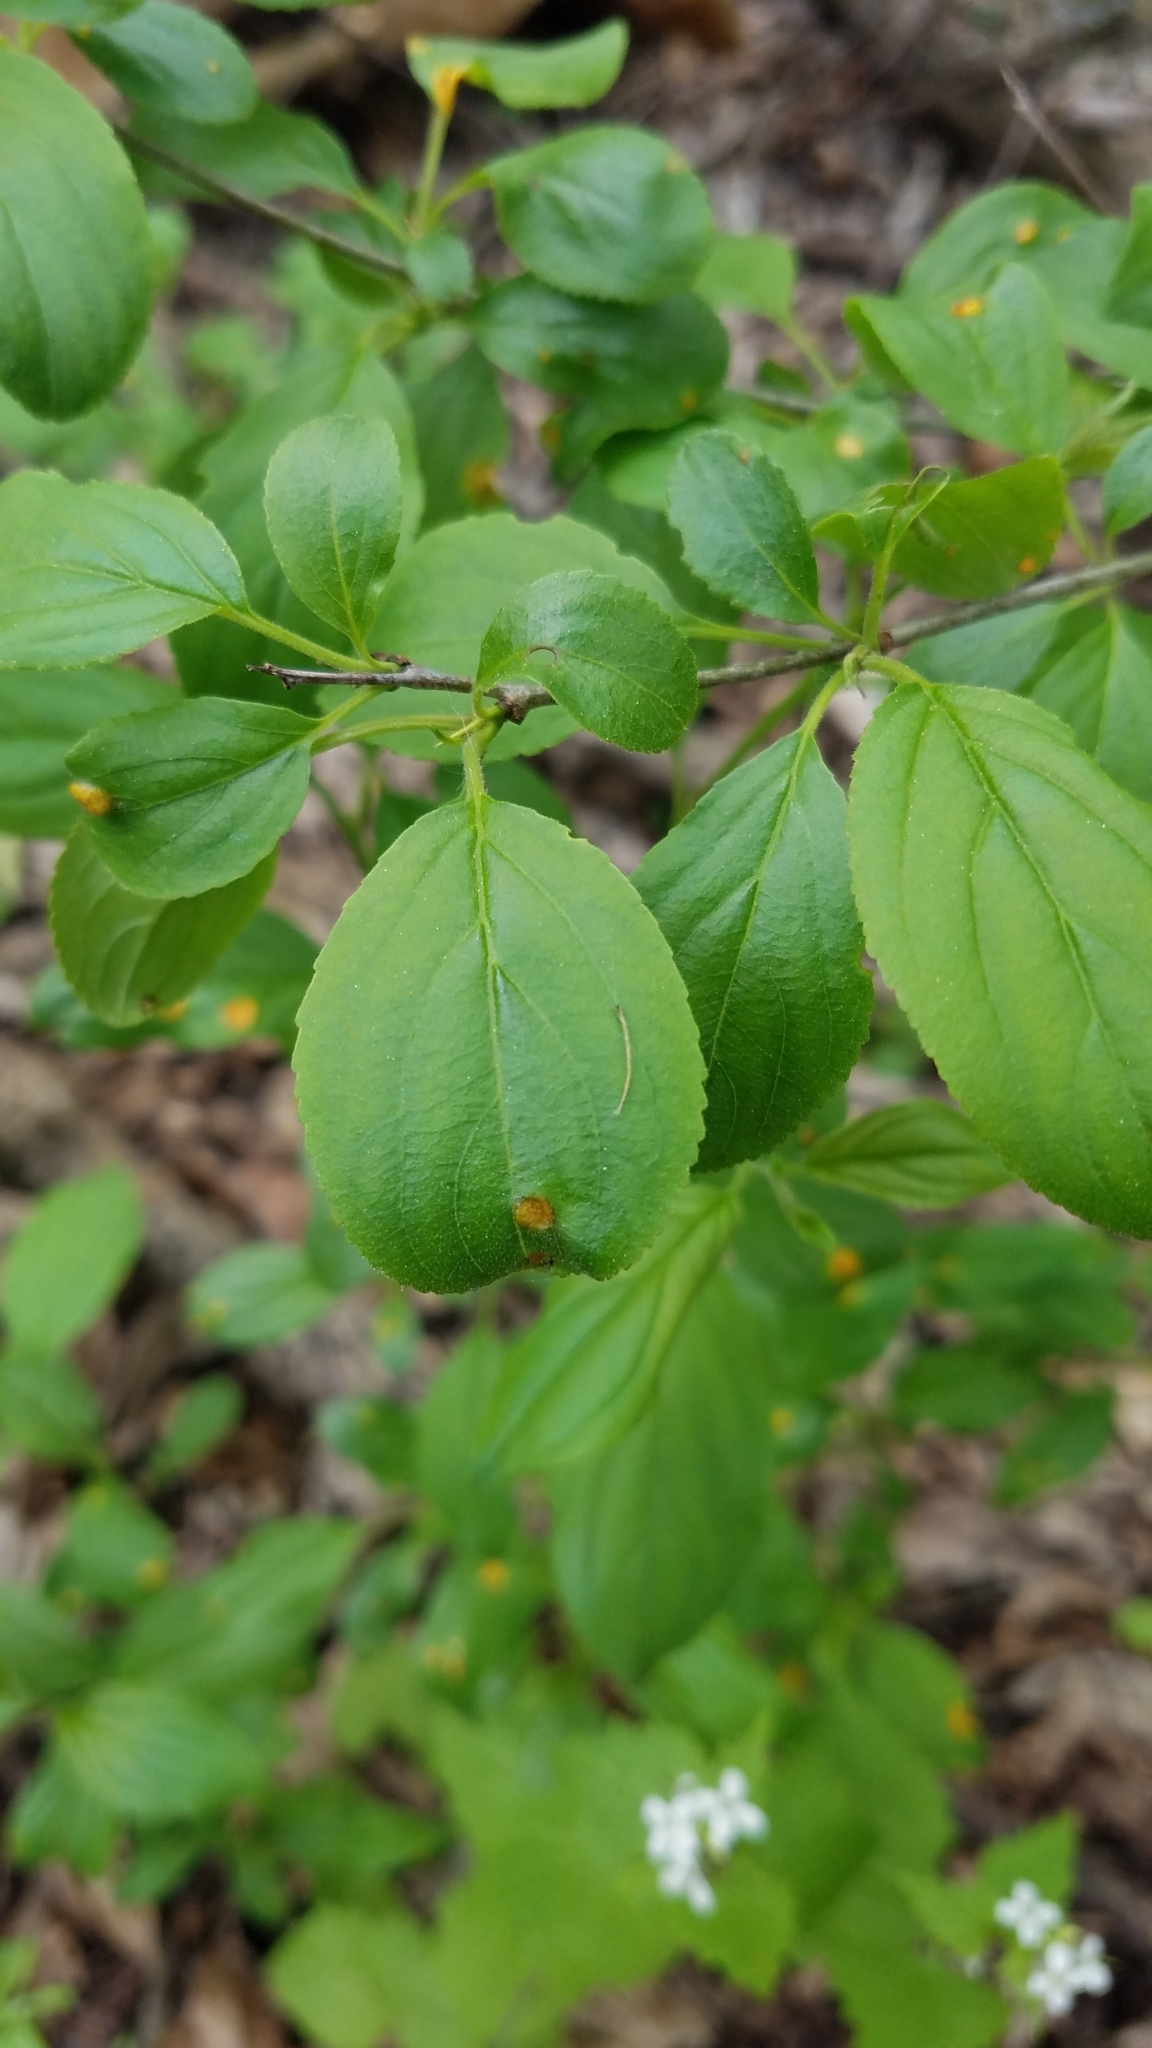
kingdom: Fungi
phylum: Basidiomycota
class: Pucciniomycetes
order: Pucciniales
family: Pucciniaceae
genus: Puccinia
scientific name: Puccinia coronata
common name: Crown rust
